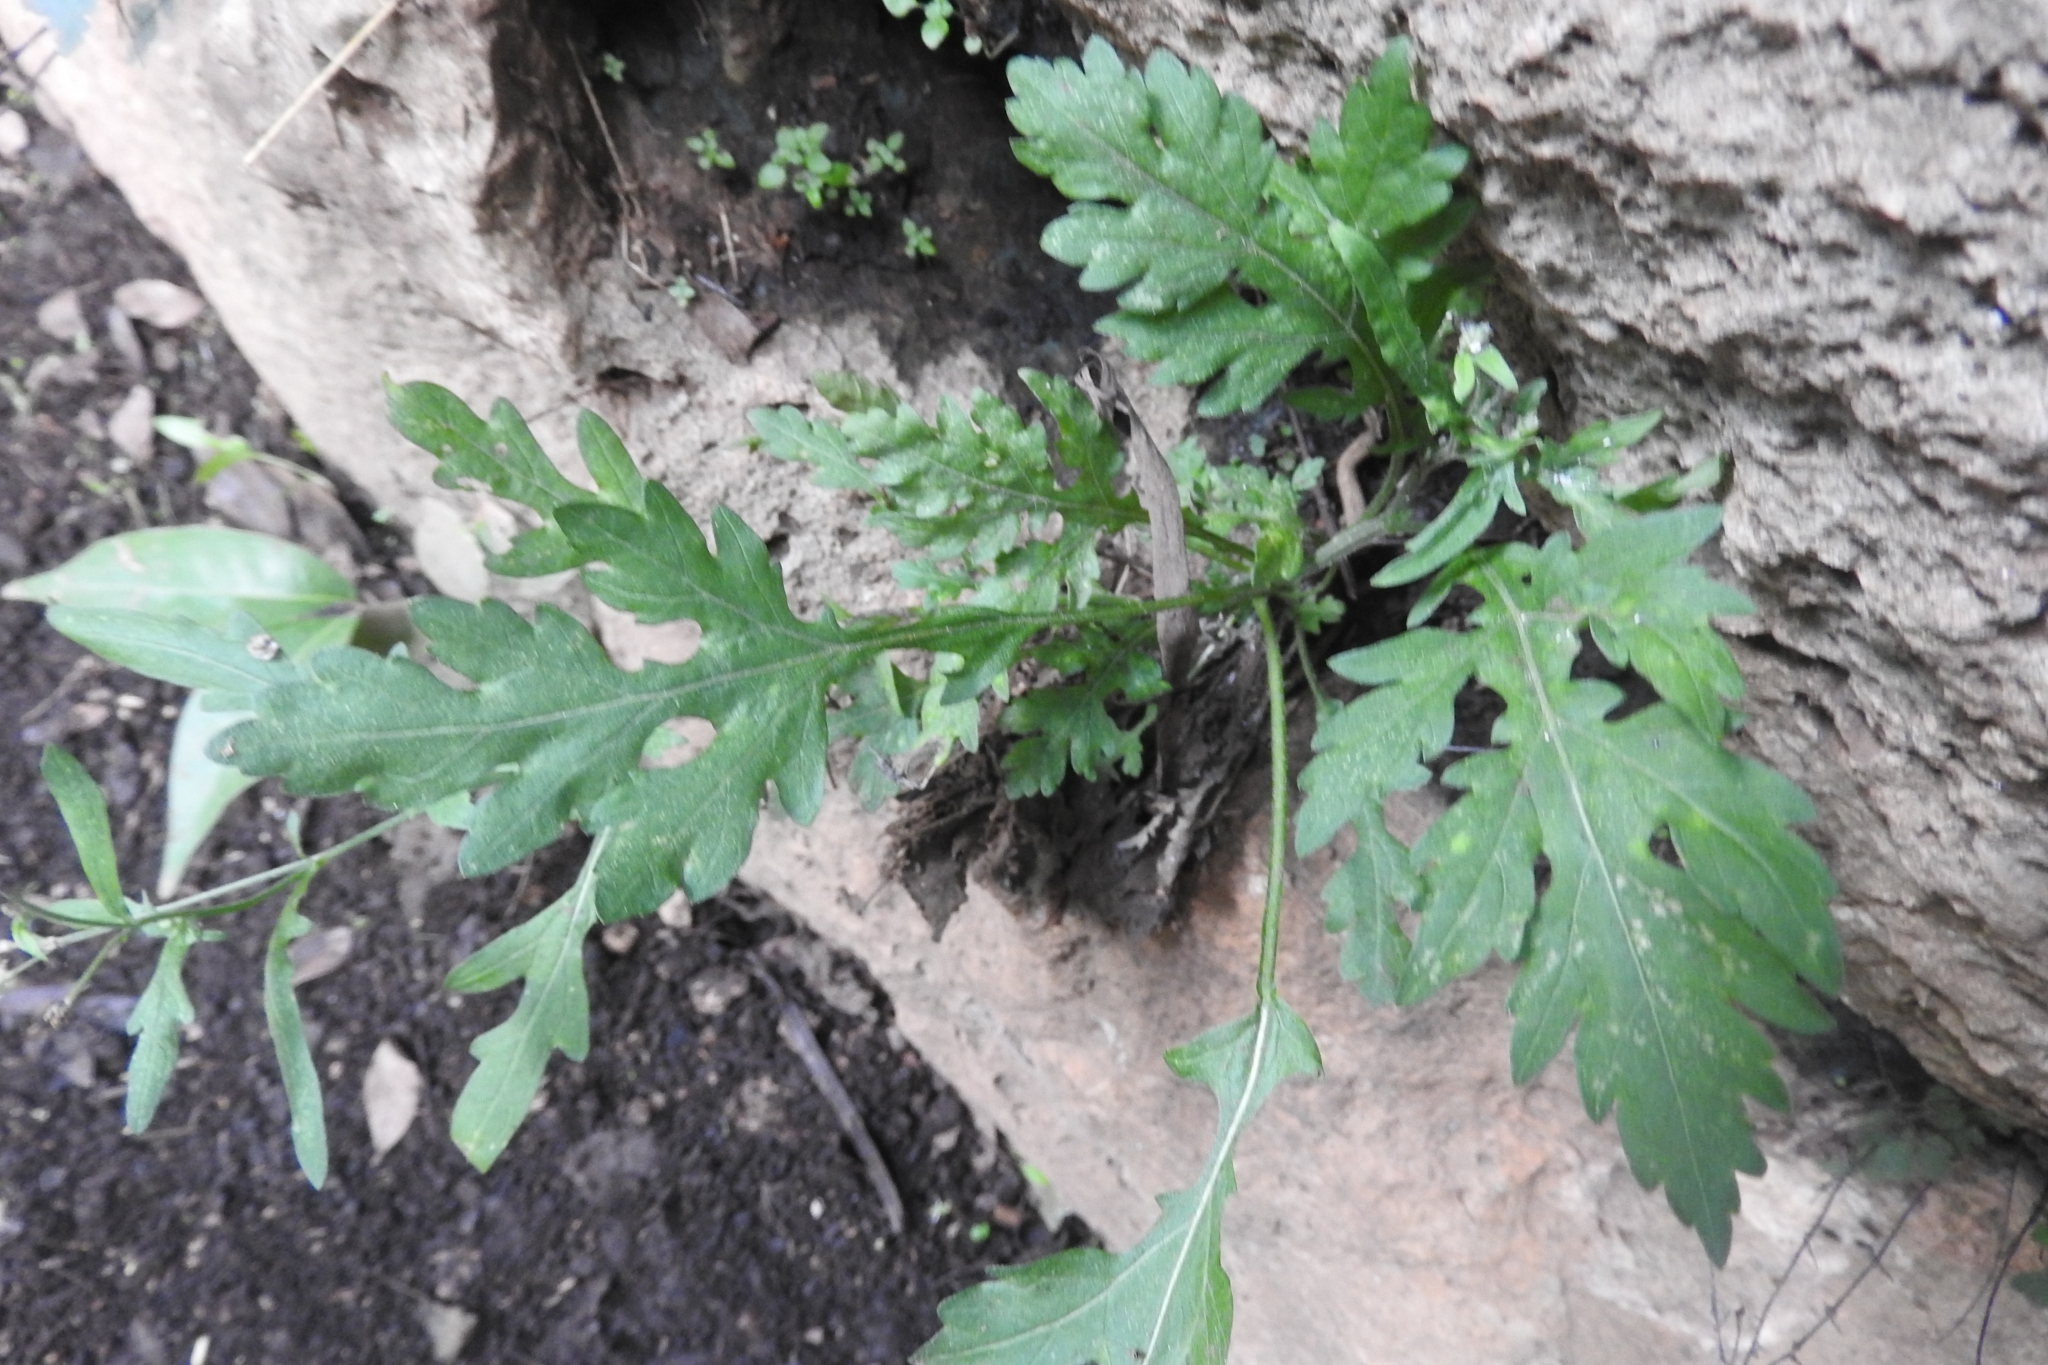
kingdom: Plantae
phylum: Tracheophyta
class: Magnoliopsida
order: Asterales
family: Asteraceae
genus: Parthenium
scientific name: Parthenium hysterophorus
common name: Santa maria feverfew
